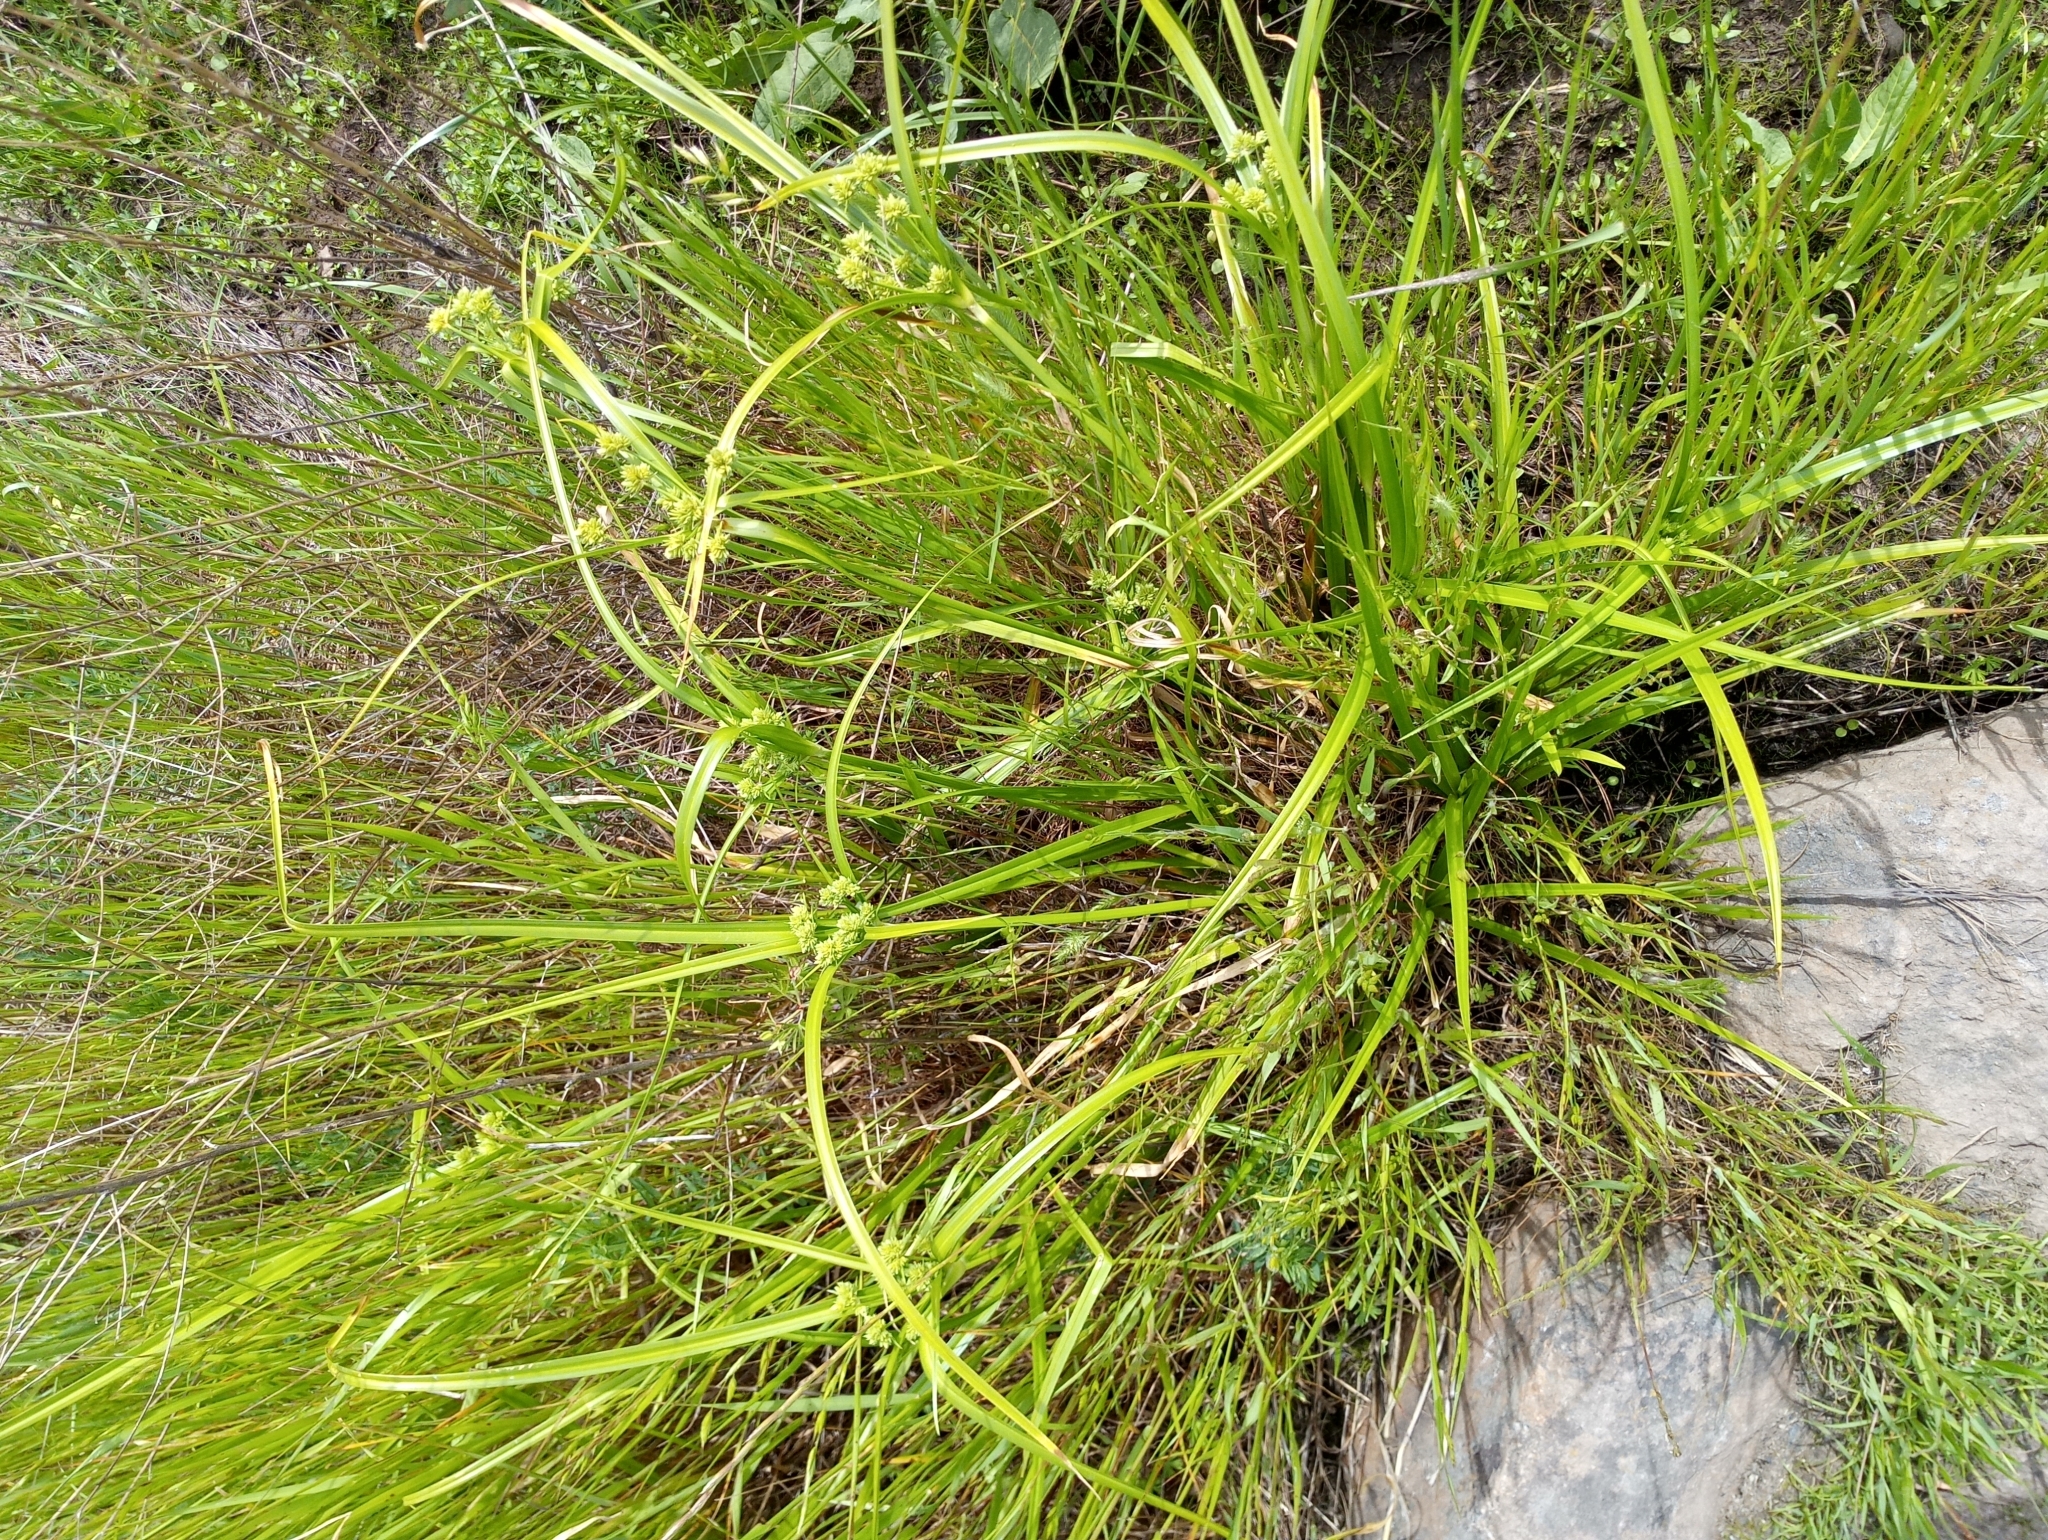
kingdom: Plantae
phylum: Tracheophyta
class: Liliopsida
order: Poales
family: Cyperaceae
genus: Cyperus
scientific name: Cyperus eragrostis
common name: Tall flatsedge
